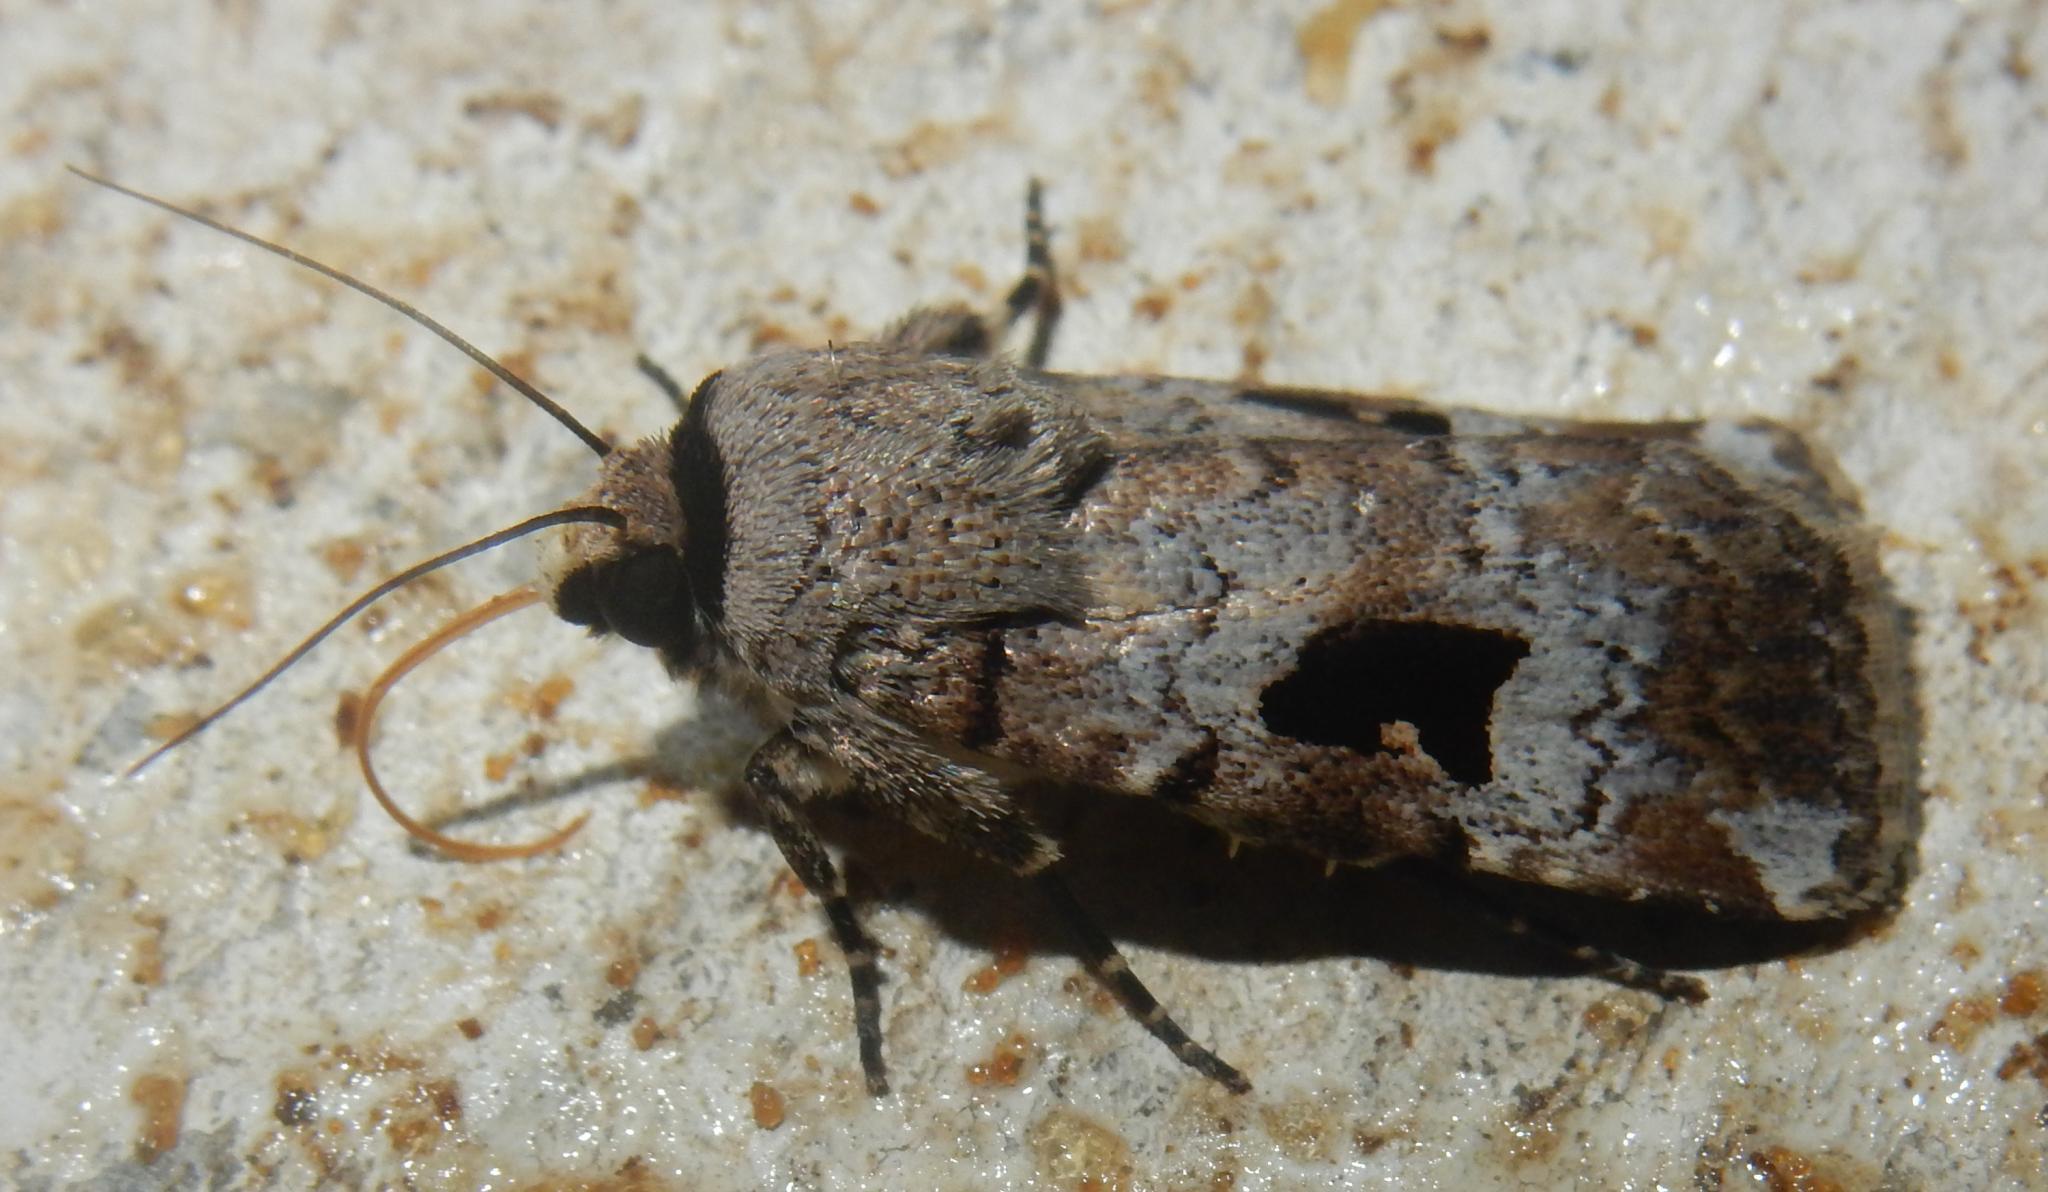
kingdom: Animalia
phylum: Arthropoda
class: Insecta
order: Lepidoptera
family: Noctuidae
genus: Spodoptera
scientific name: Spodoptera abyssinia
